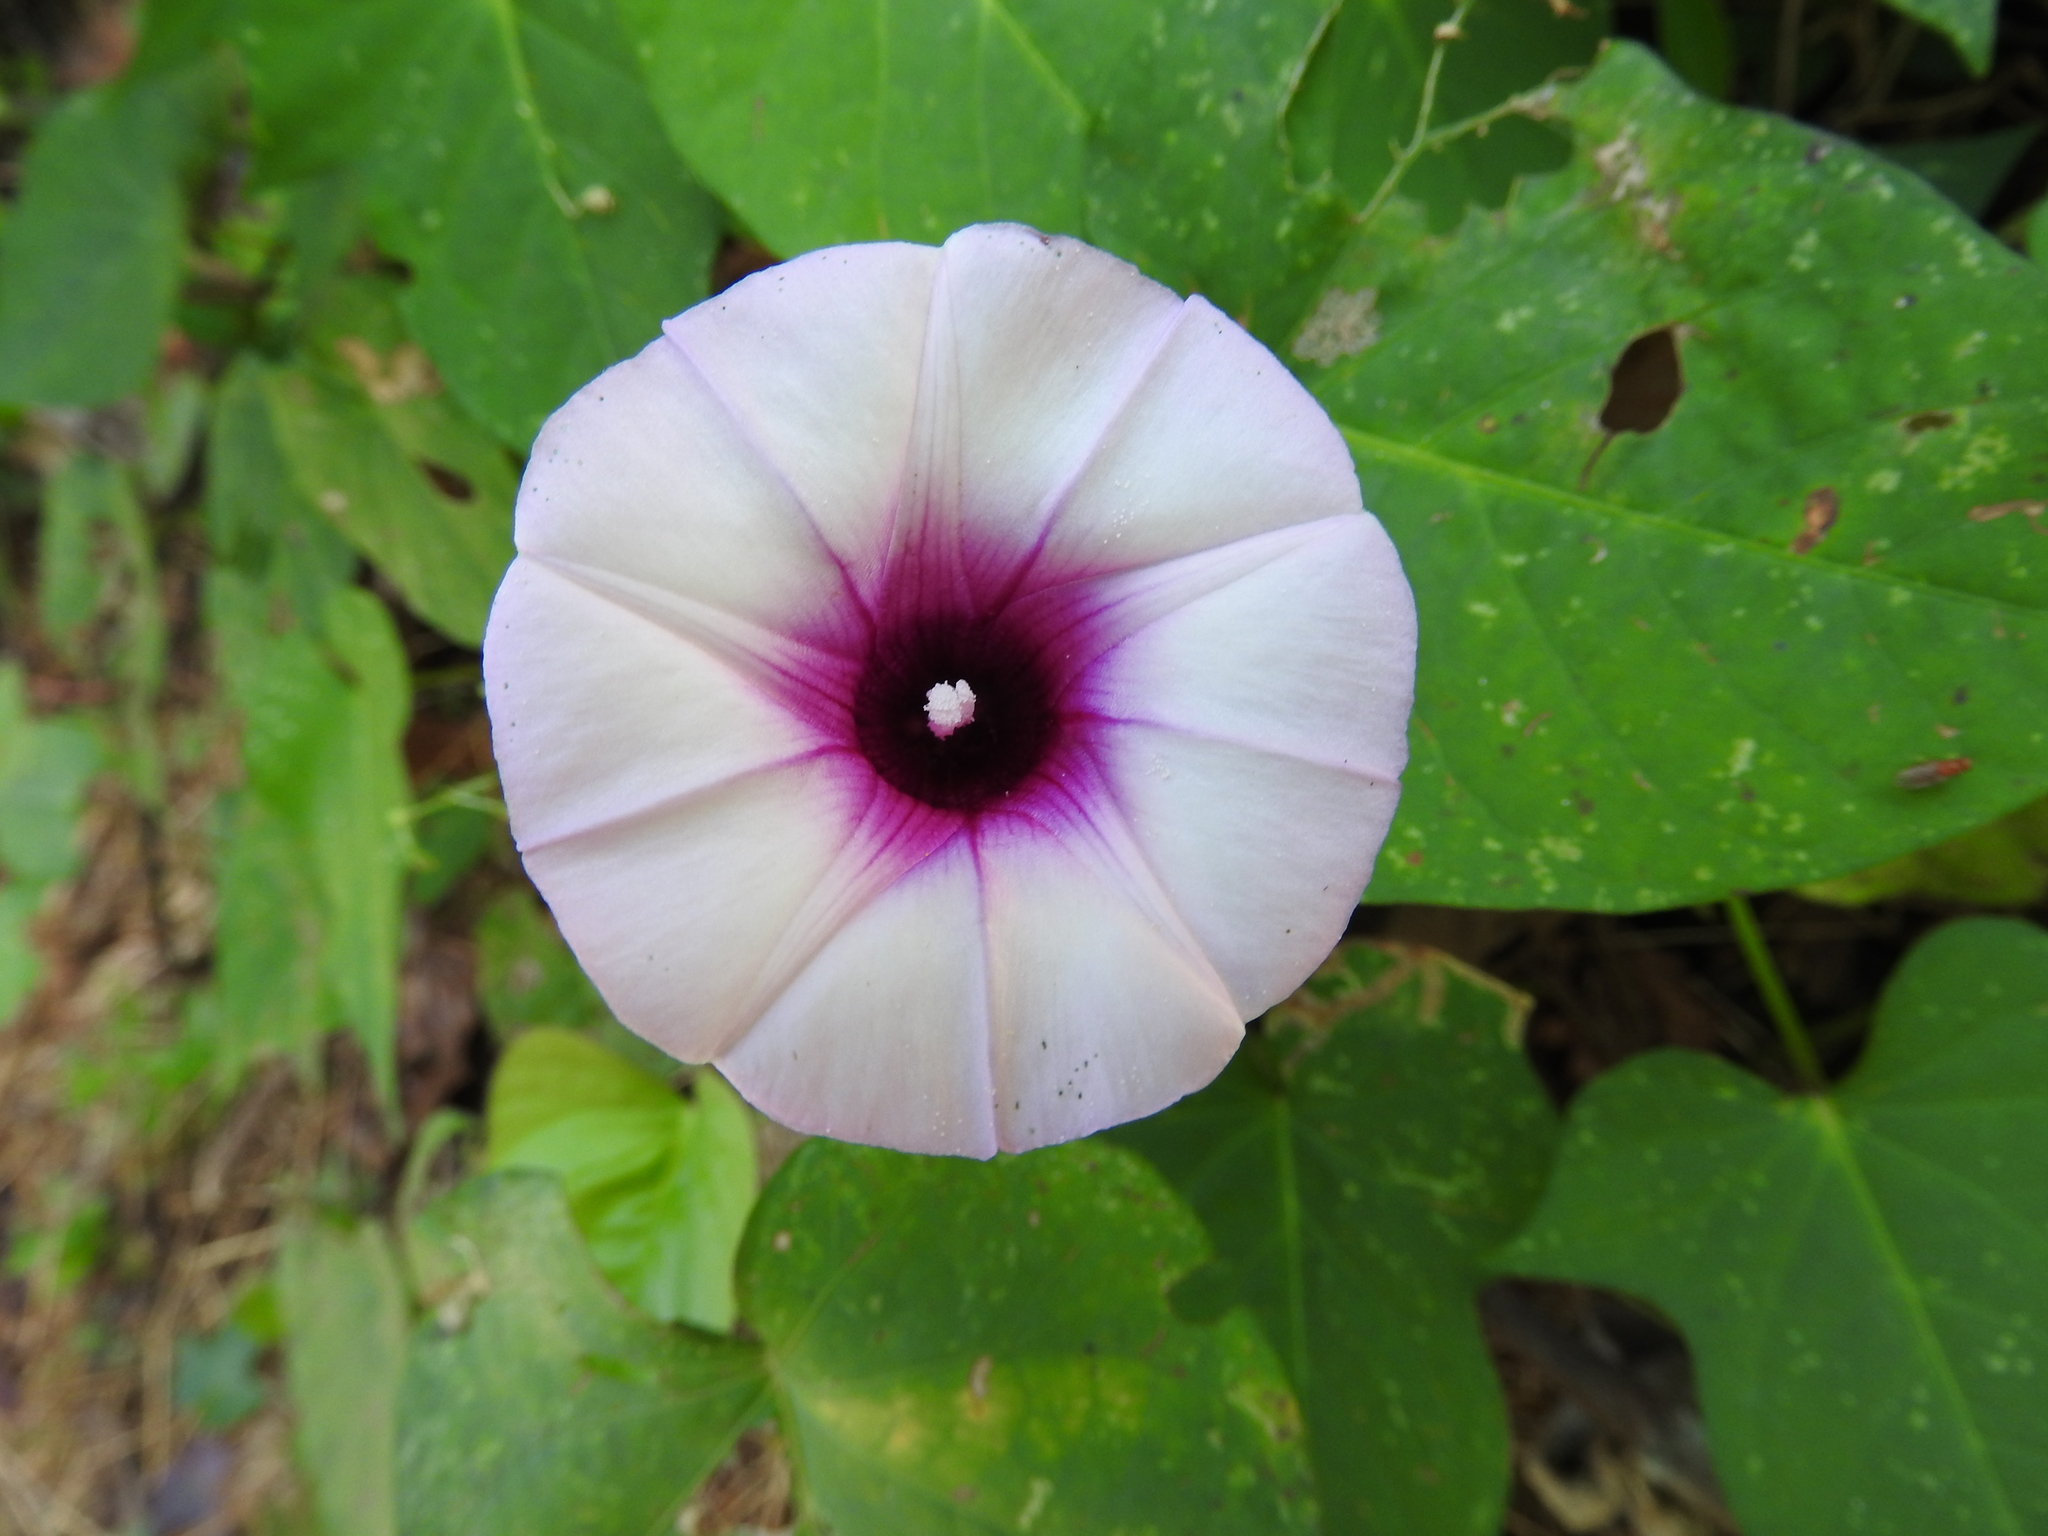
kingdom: Plantae
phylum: Tracheophyta
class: Magnoliopsida
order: Solanales
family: Convolvulaceae
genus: Ipomoea
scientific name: Ipomoea batatas
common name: Sweet-potato
